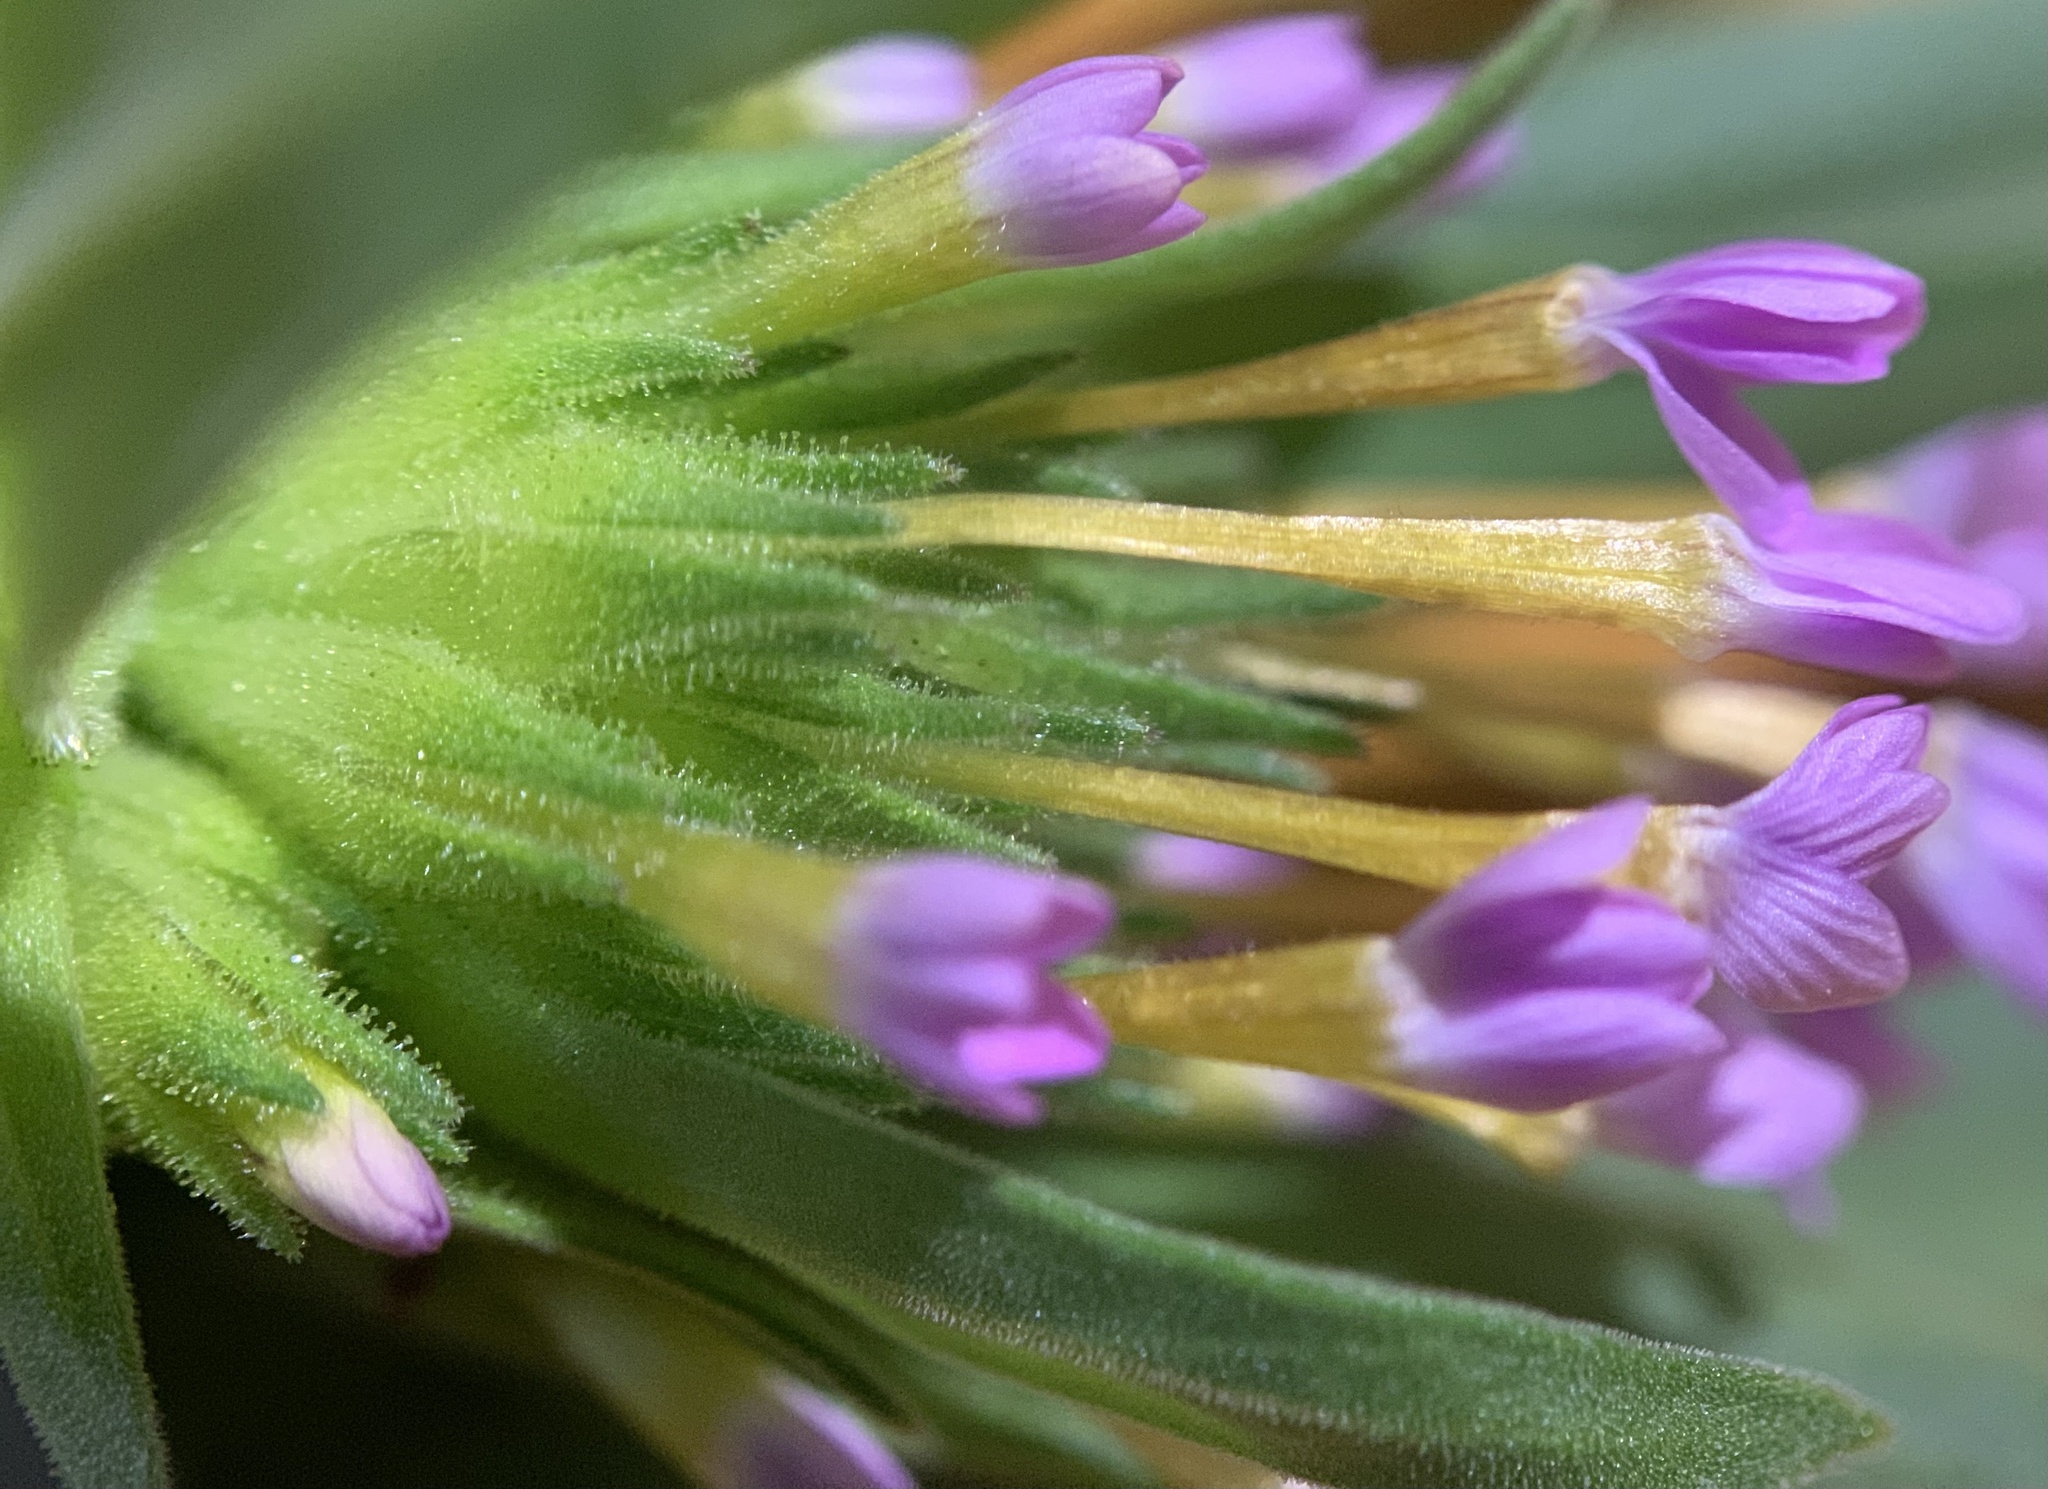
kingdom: Plantae
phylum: Tracheophyta
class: Magnoliopsida
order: Ericales
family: Polemoniaceae
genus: Collomia
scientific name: Collomia linearis
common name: Tiny trumpet
